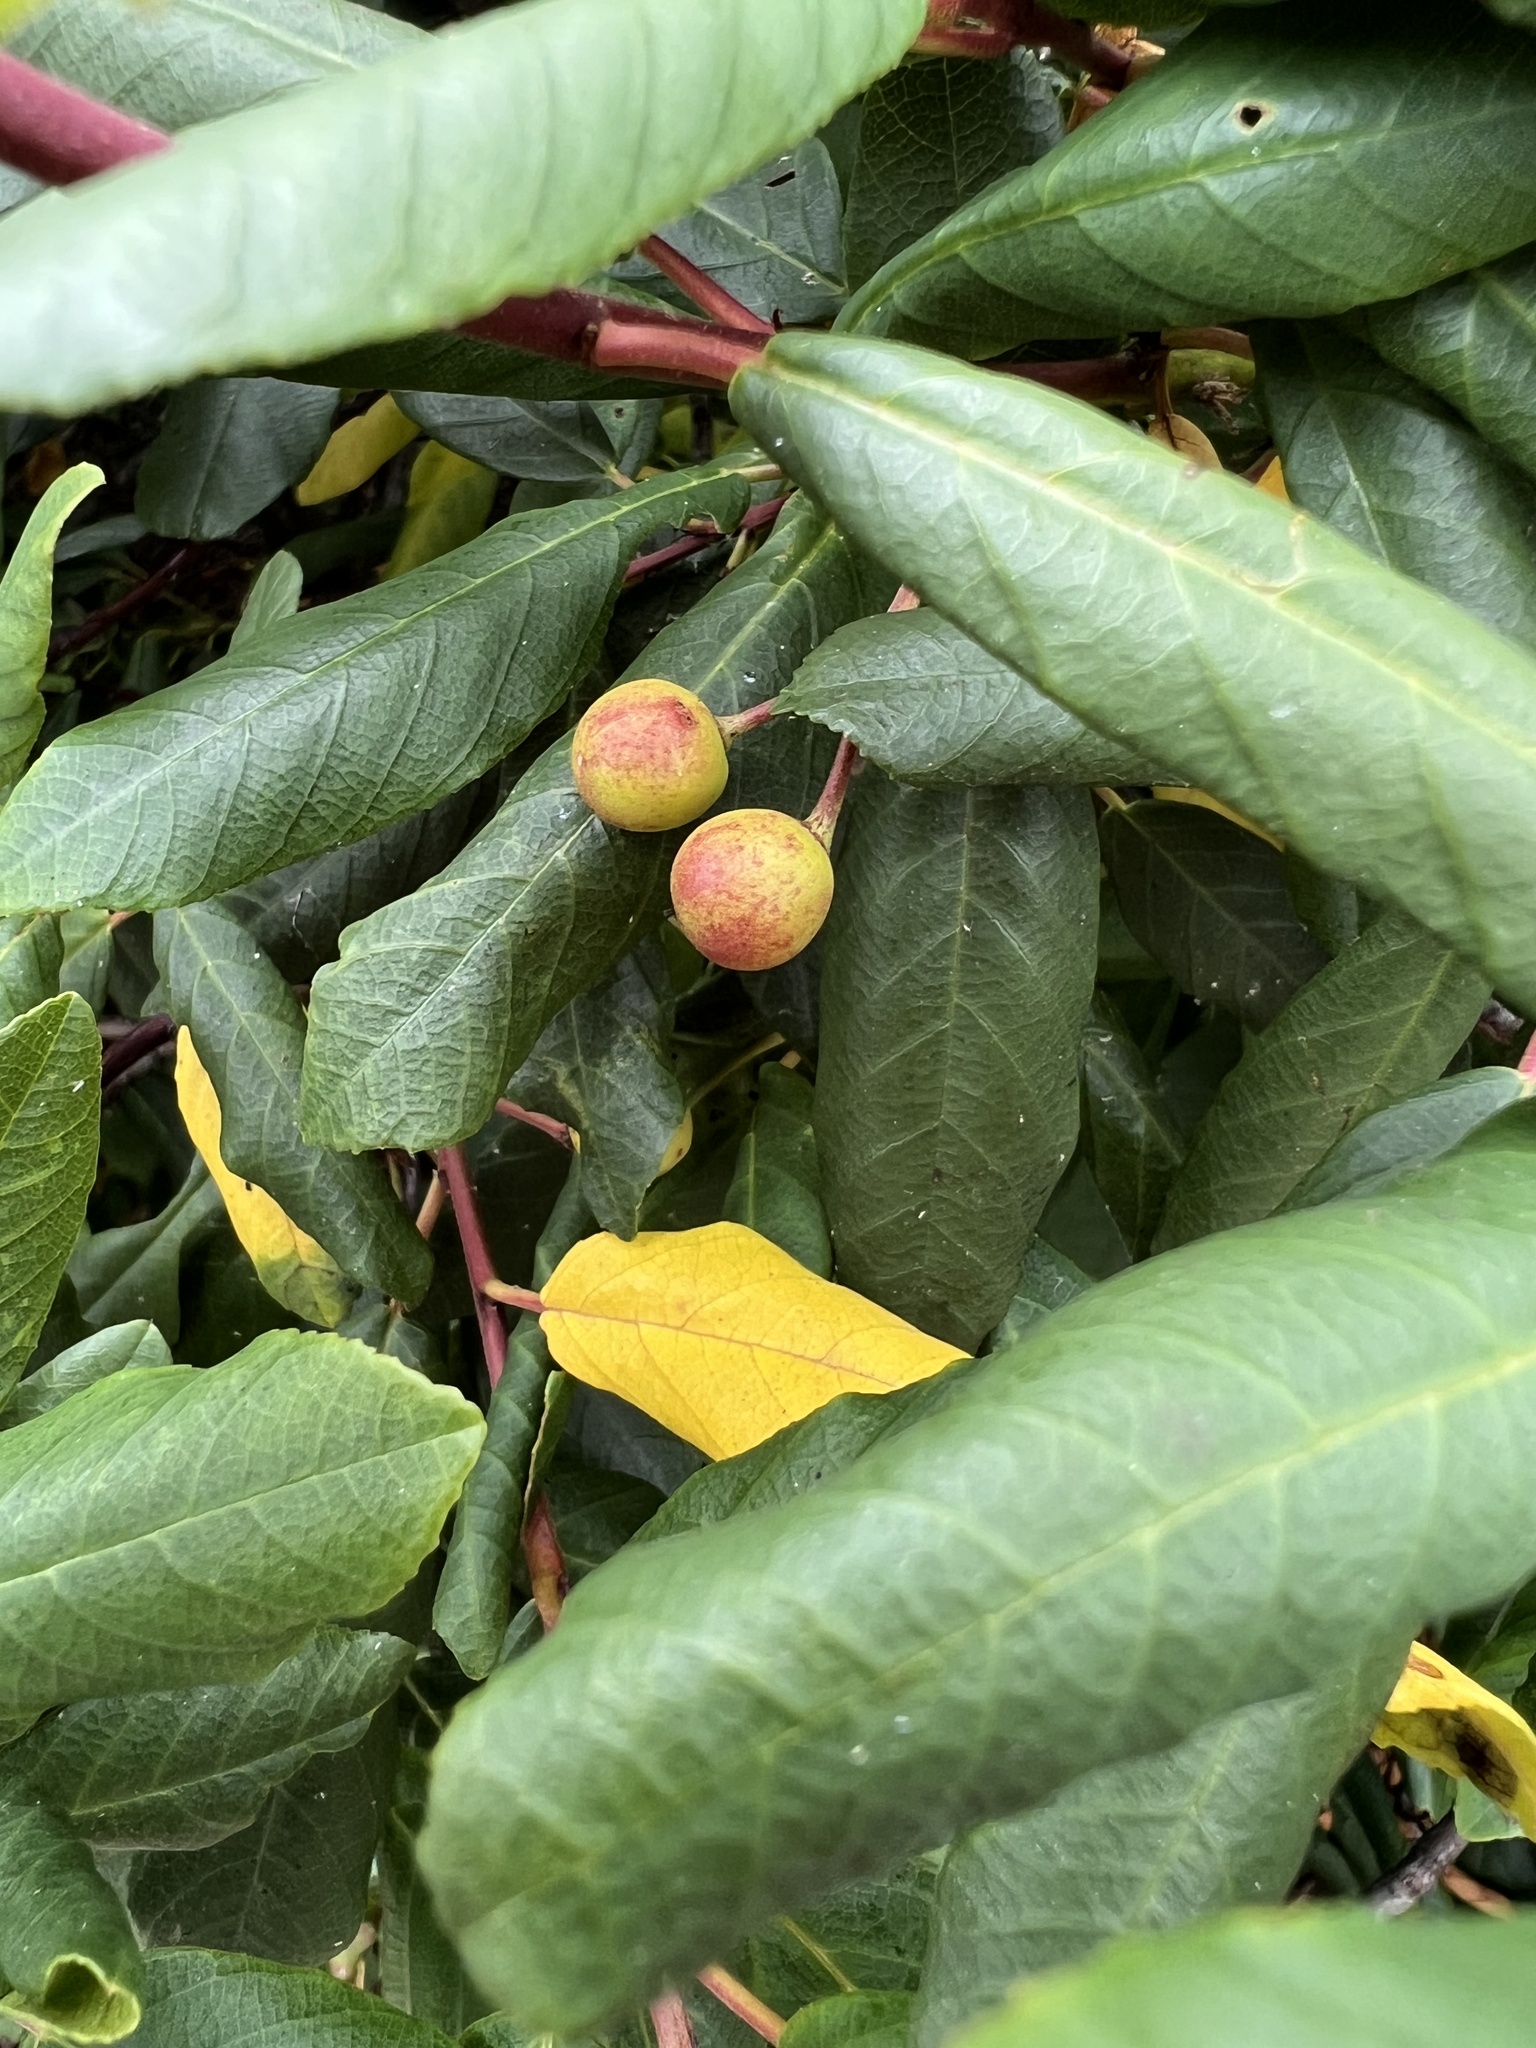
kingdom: Plantae
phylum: Tracheophyta
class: Magnoliopsida
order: Rosales
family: Rhamnaceae
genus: Frangula
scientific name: Frangula californica
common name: California buckthorn
